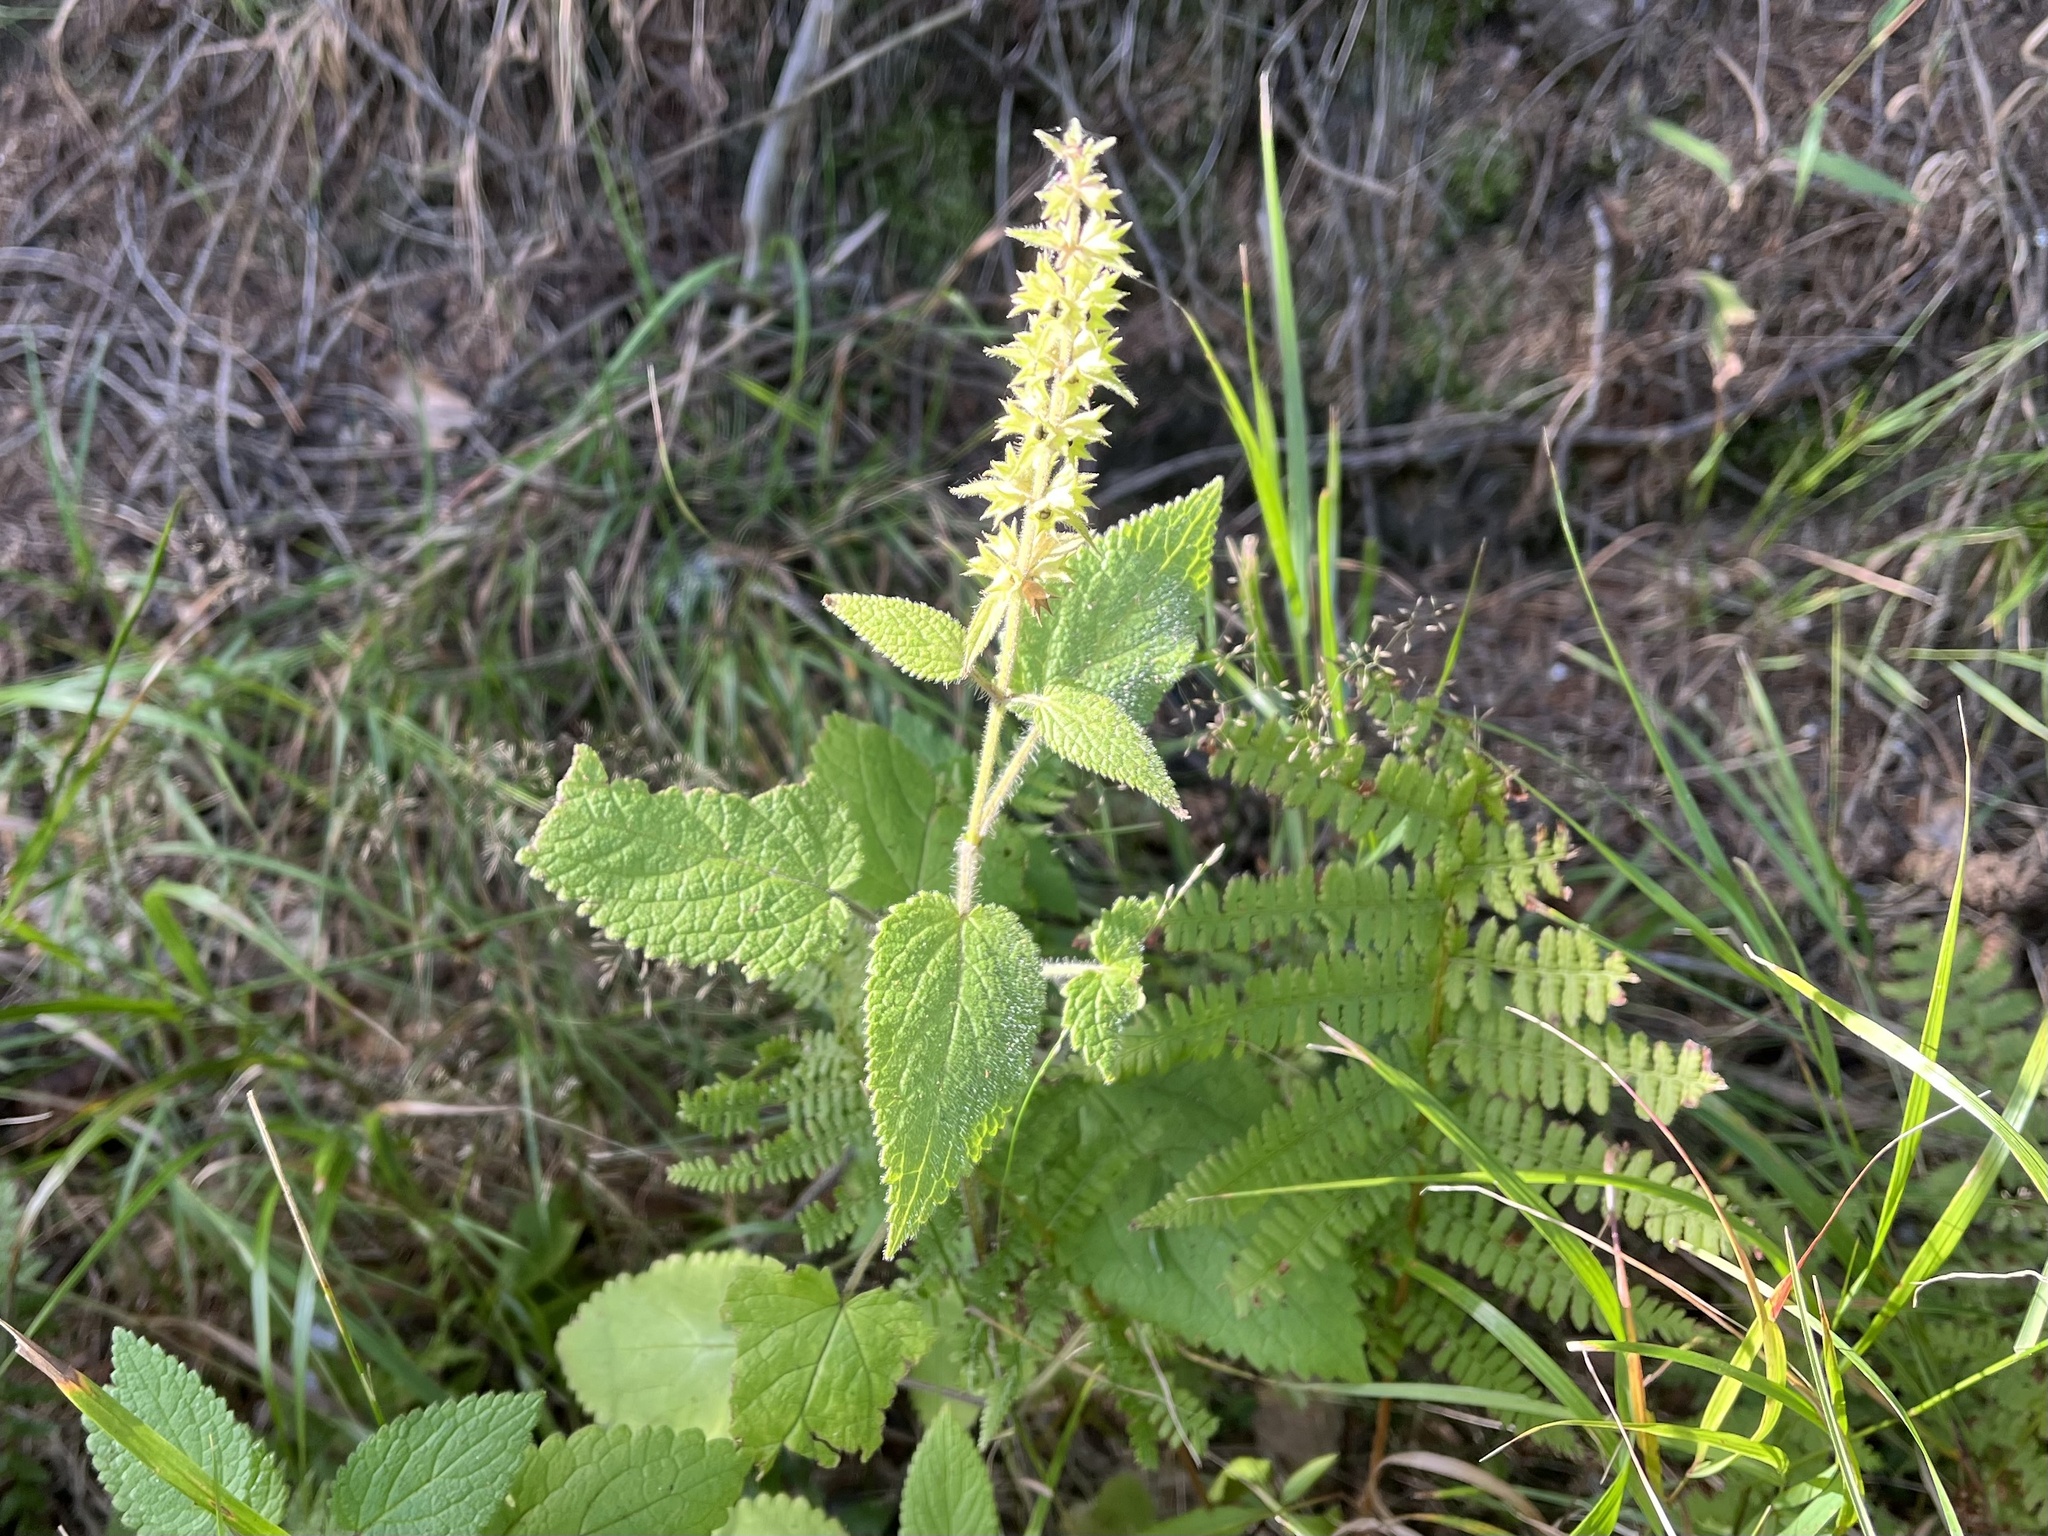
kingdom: Plantae
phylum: Tracheophyta
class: Magnoliopsida
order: Lamiales
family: Lamiaceae
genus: Stachys
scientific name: Stachys sylvatica
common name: Hedge woundwort
